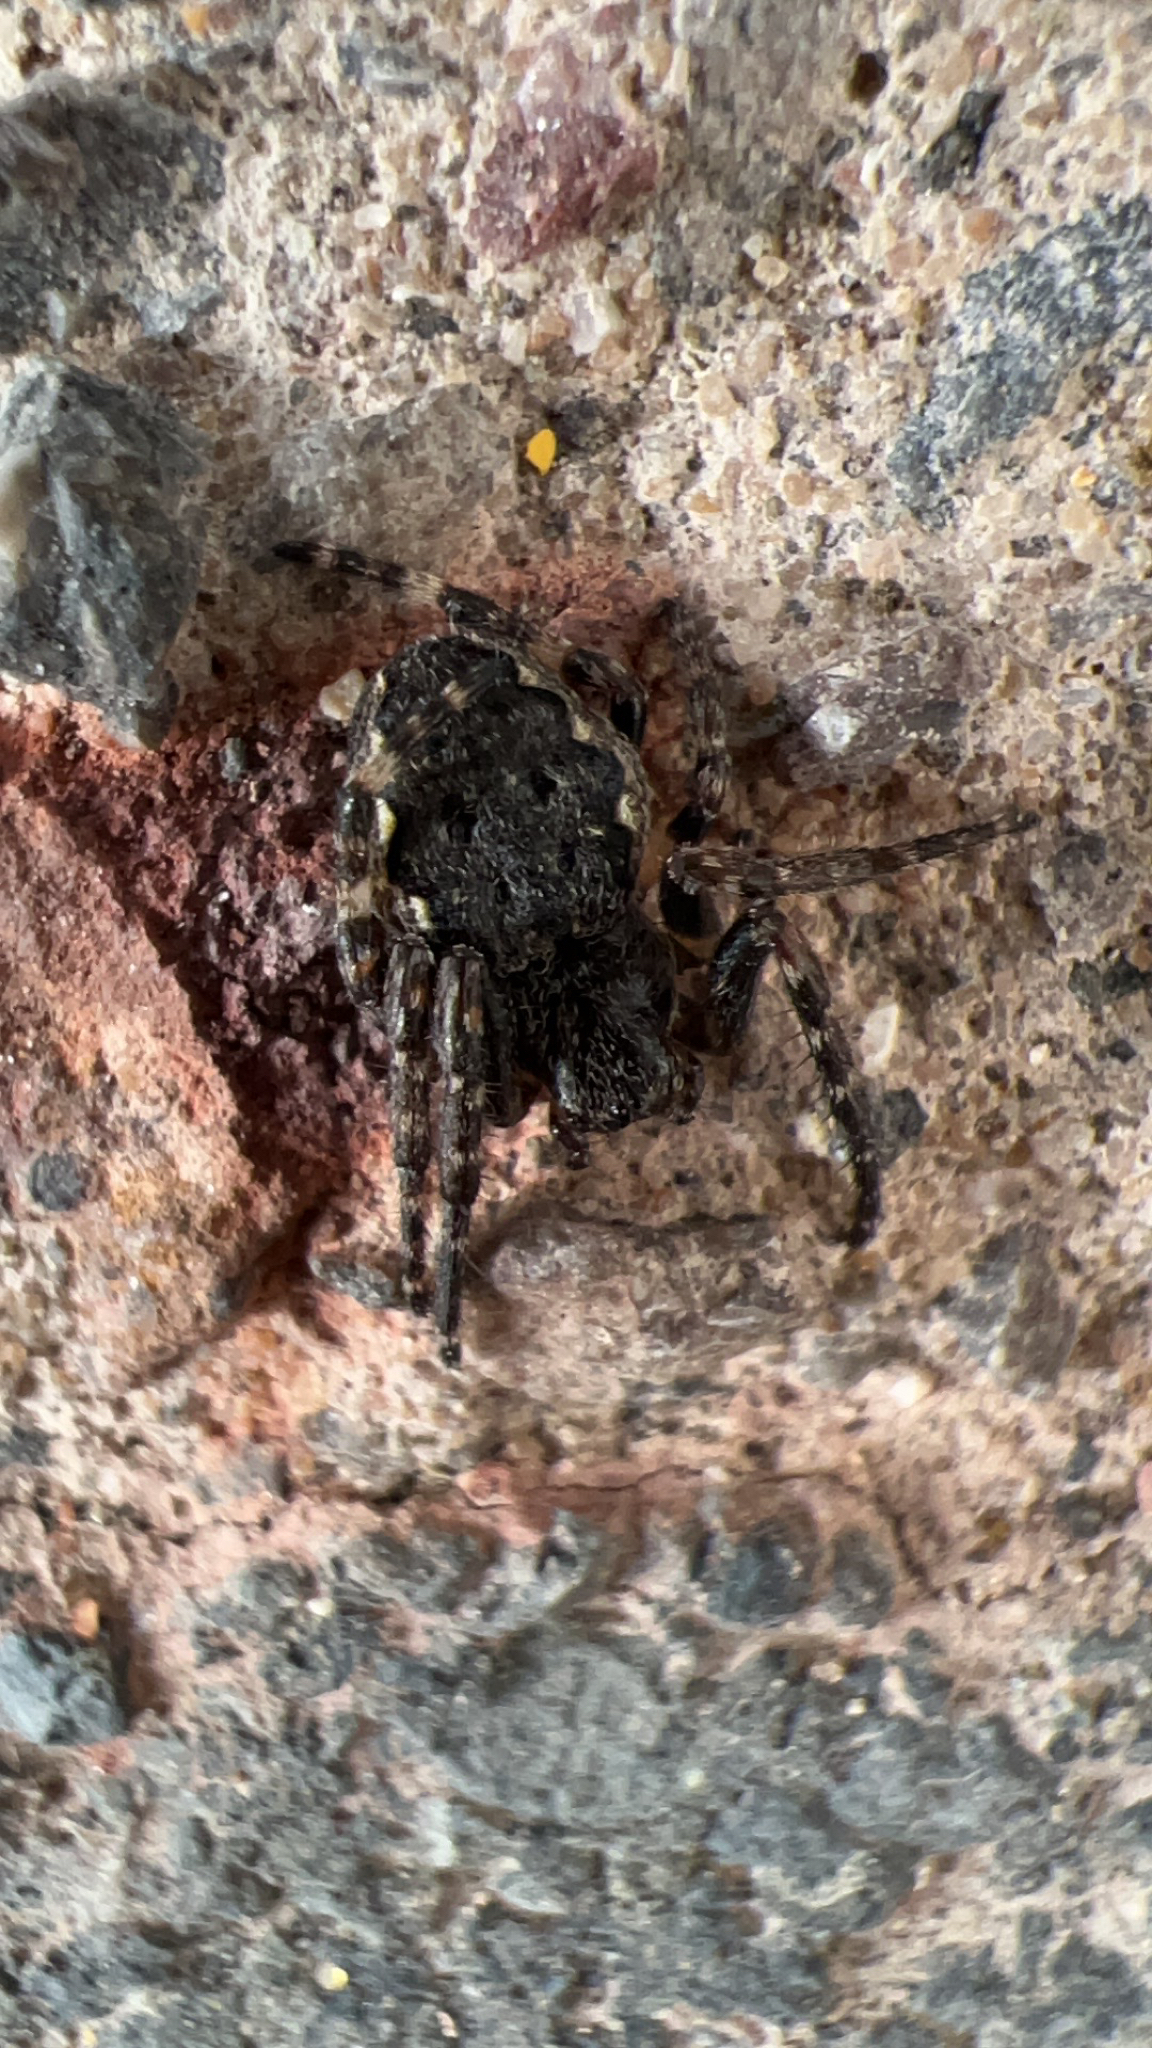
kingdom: Animalia
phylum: Arthropoda
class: Arachnida
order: Araneae
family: Araneidae
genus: Nuctenea
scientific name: Nuctenea umbratica
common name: Toad spider
